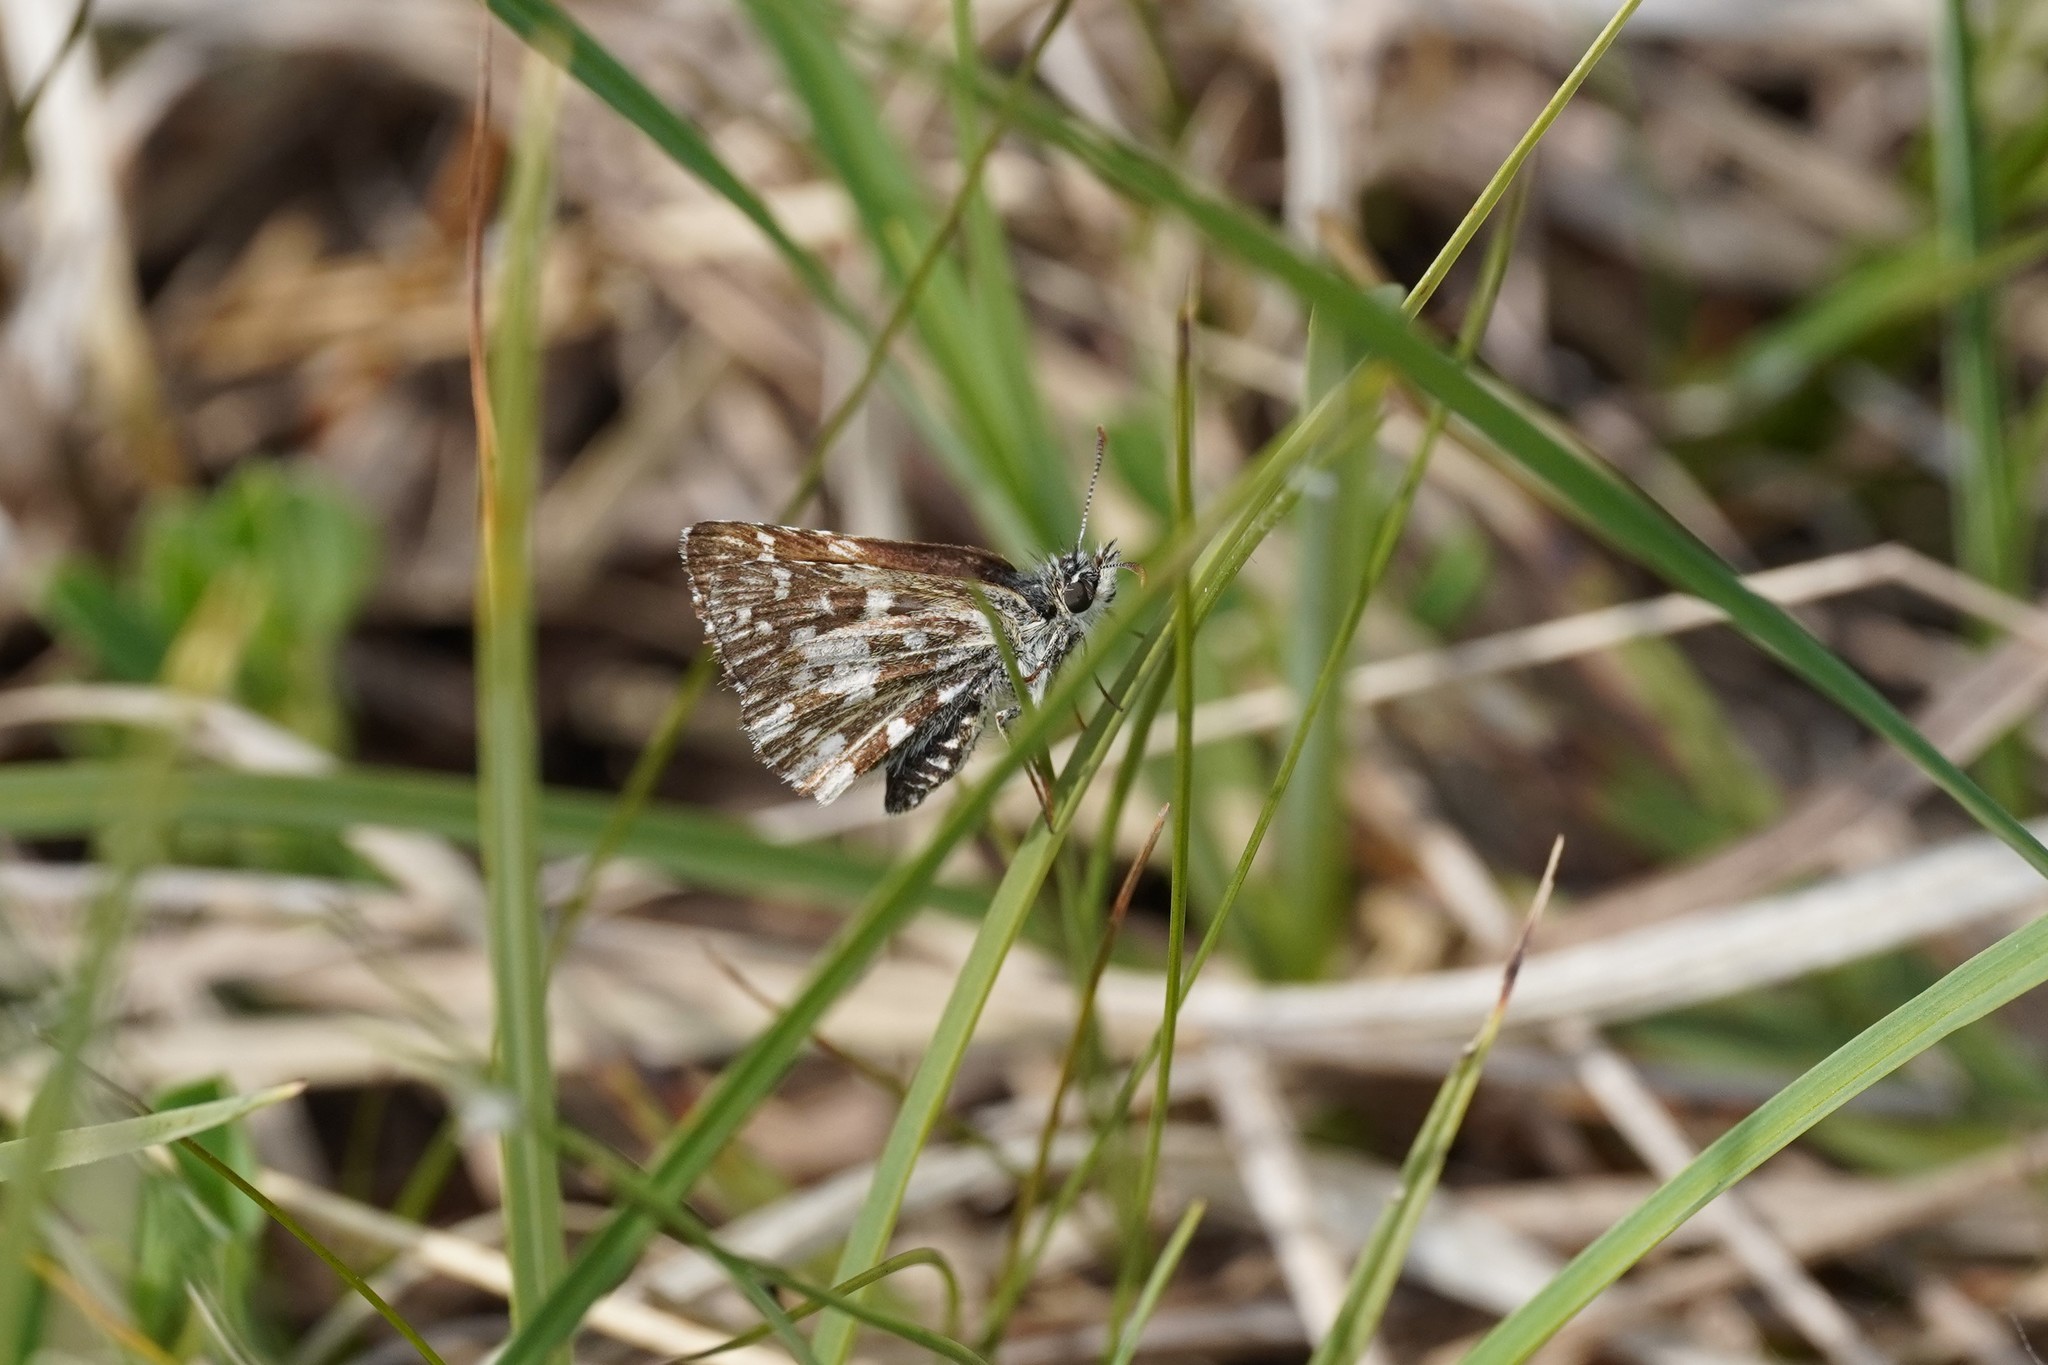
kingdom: Animalia
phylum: Arthropoda
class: Insecta
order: Lepidoptera
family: Hesperiidae
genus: Pyrgus
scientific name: Pyrgus malvae
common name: Grizzled skipper
